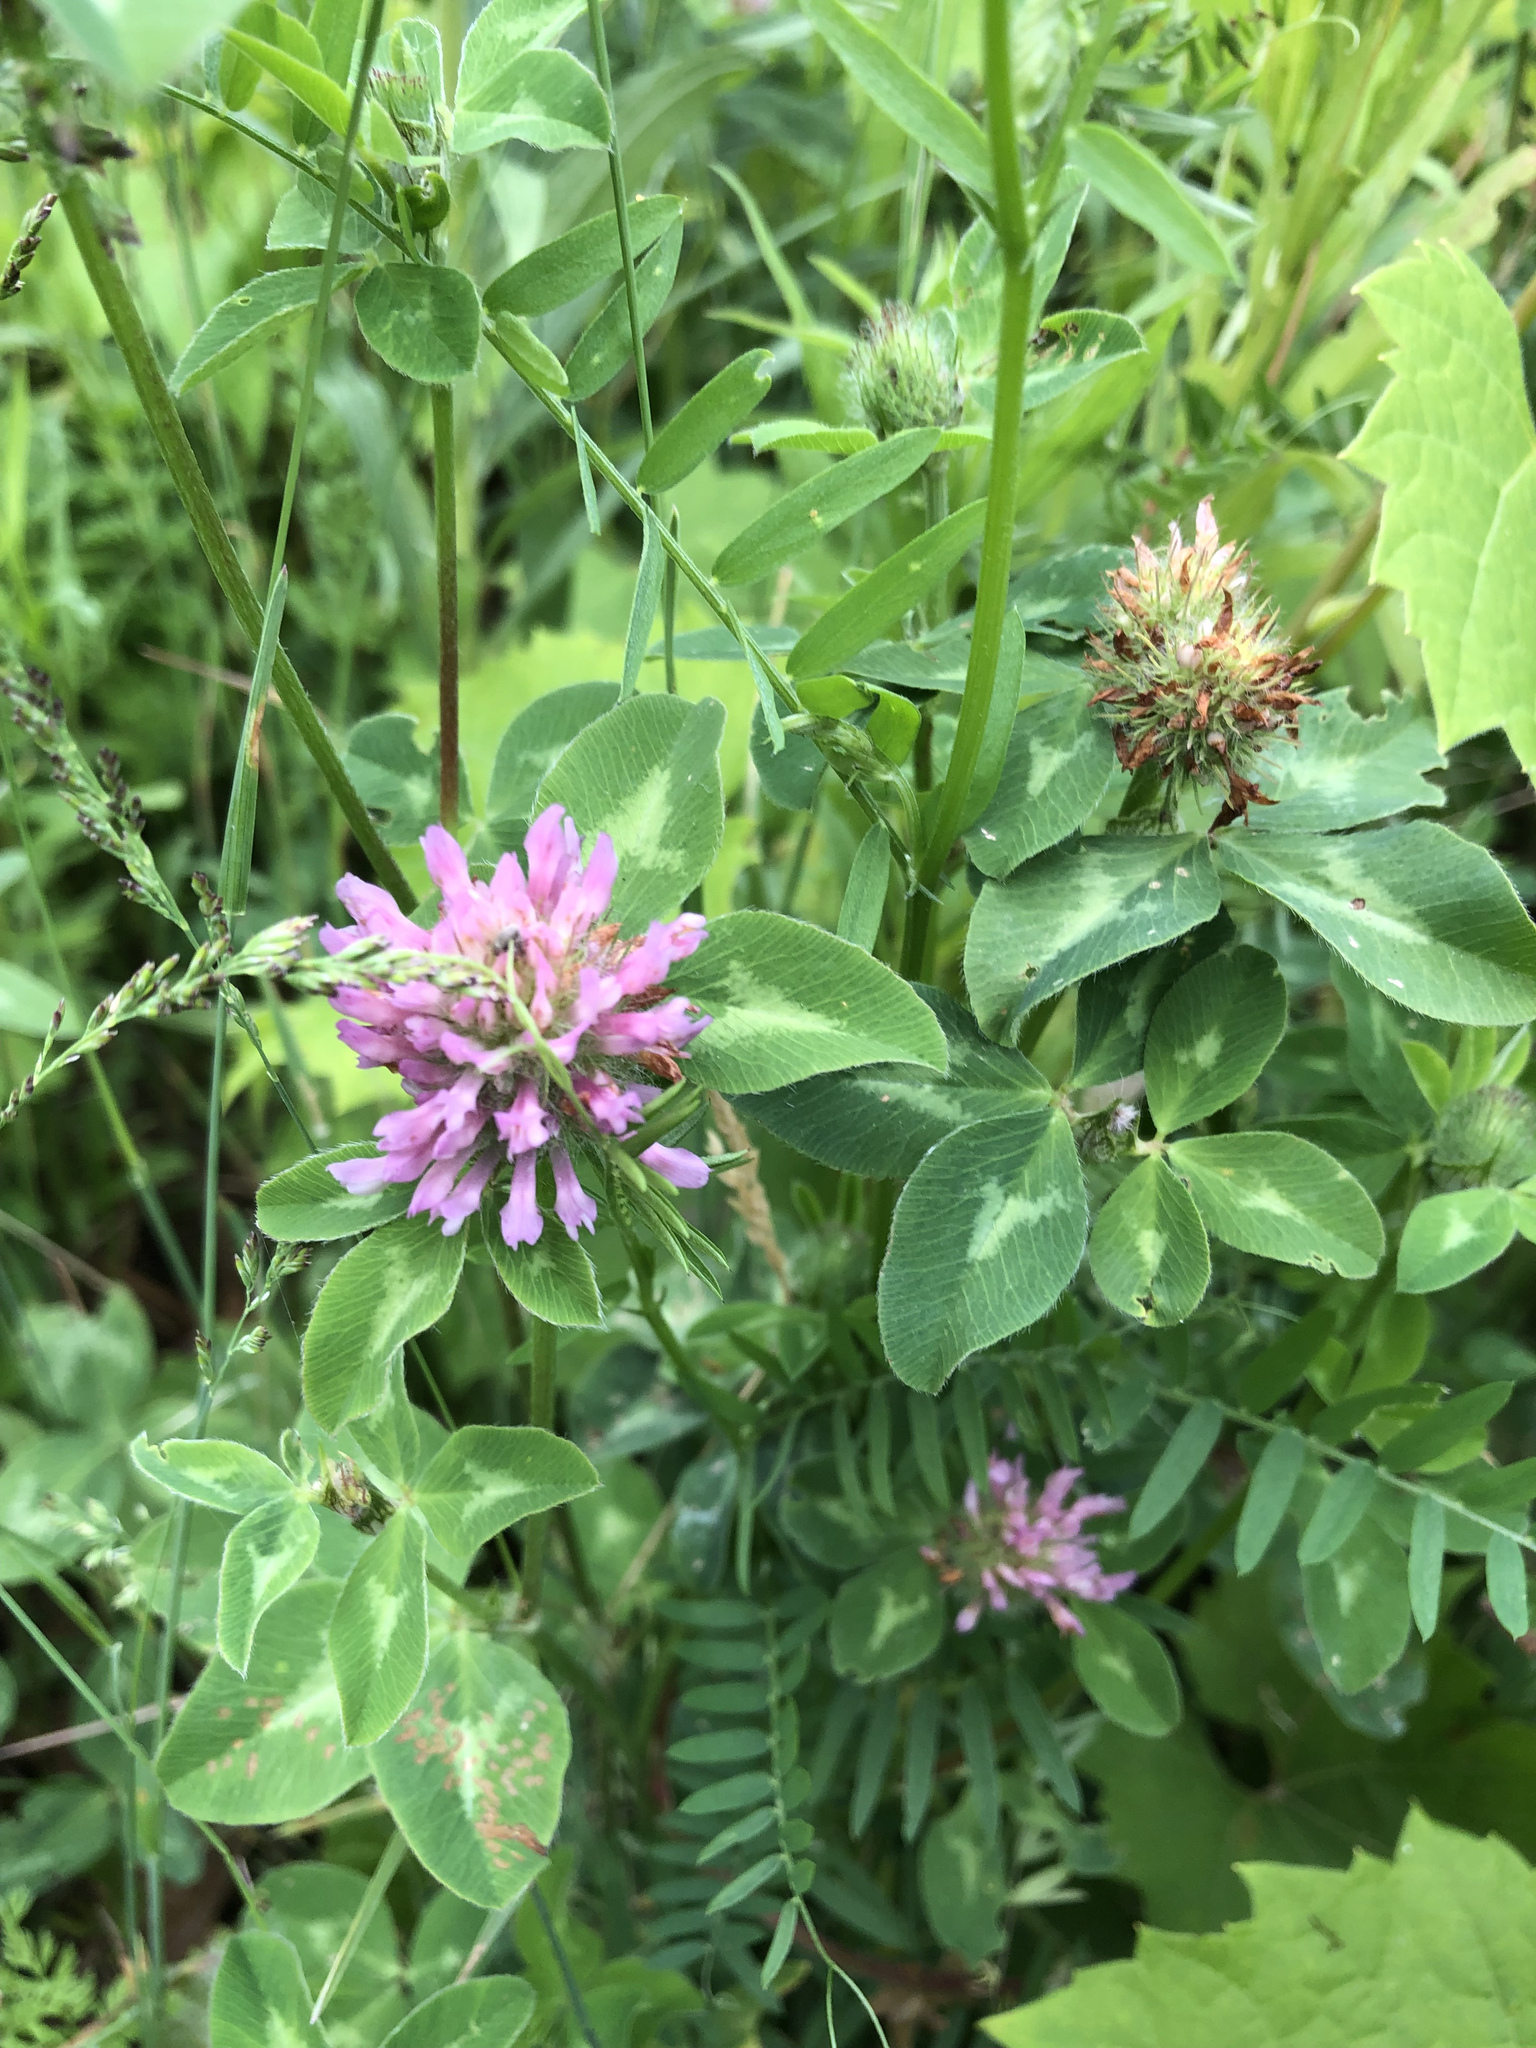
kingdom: Plantae
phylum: Tracheophyta
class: Magnoliopsida
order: Fabales
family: Fabaceae
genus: Trifolium
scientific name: Trifolium pratense
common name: Red clover
